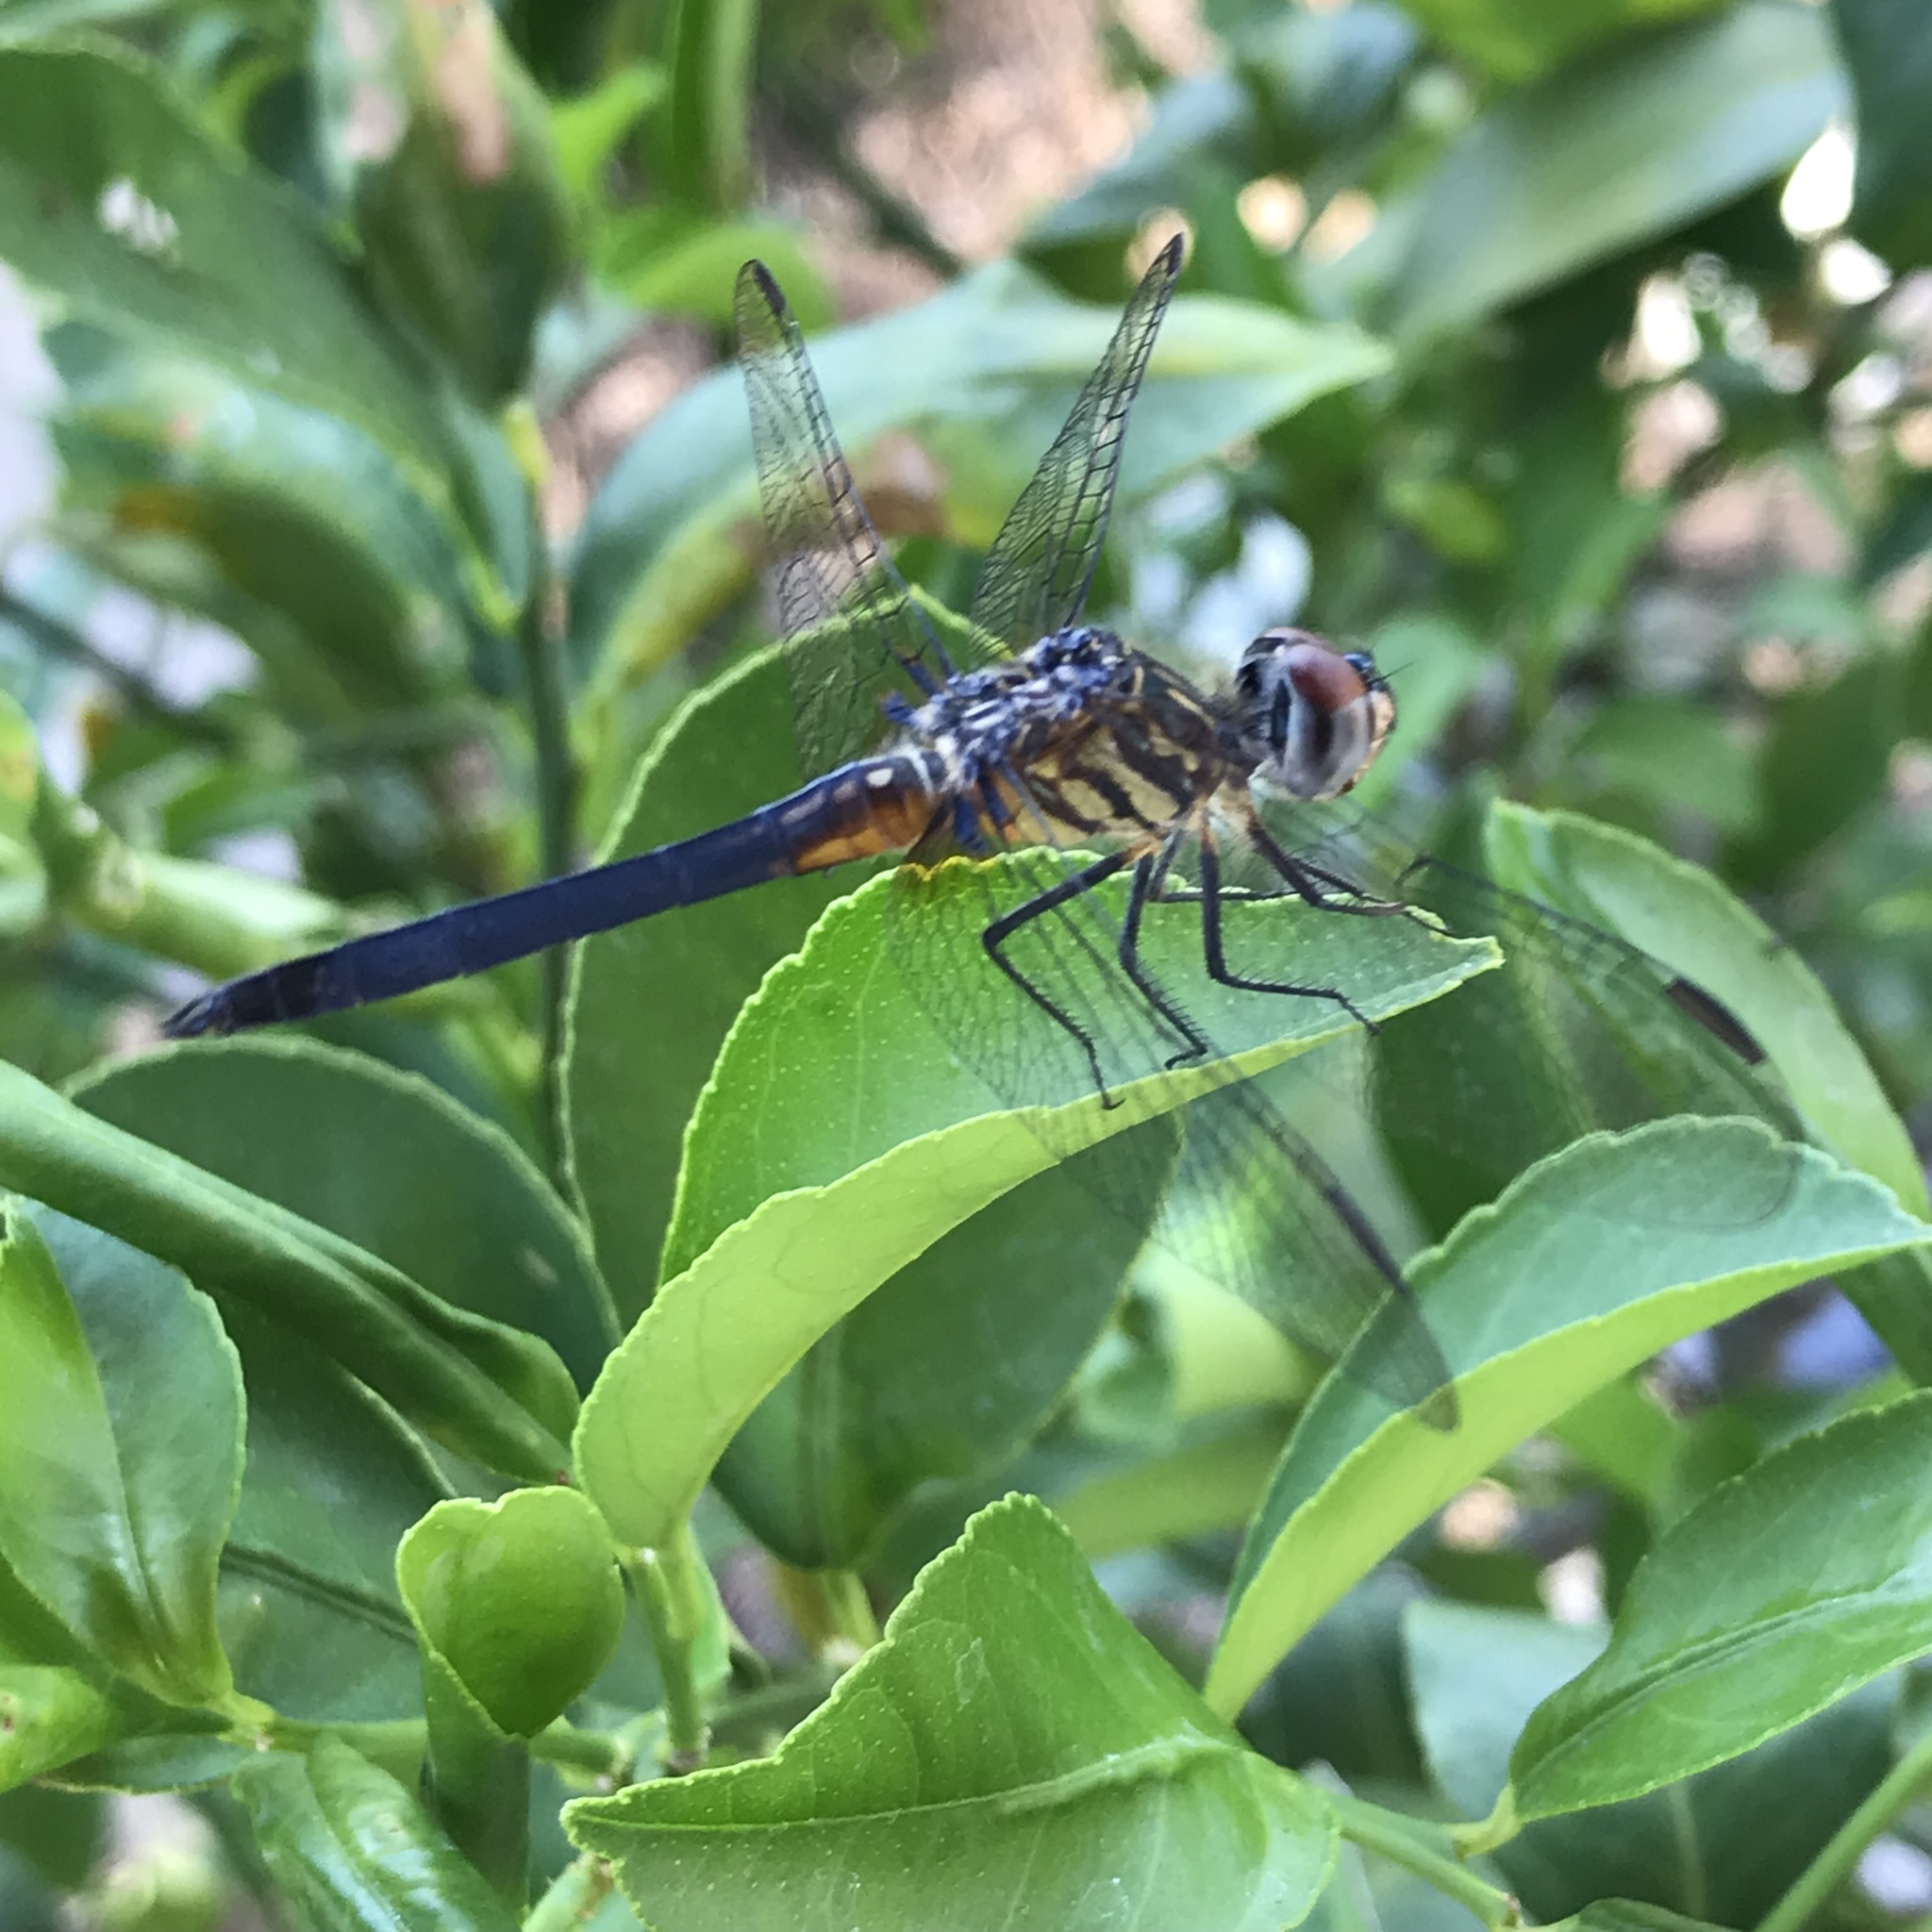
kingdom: Animalia
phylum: Arthropoda
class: Insecta
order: Odonata
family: Libellulidae
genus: Pachydiplax
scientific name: Pachydiplax longipennis
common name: Blue dasher
